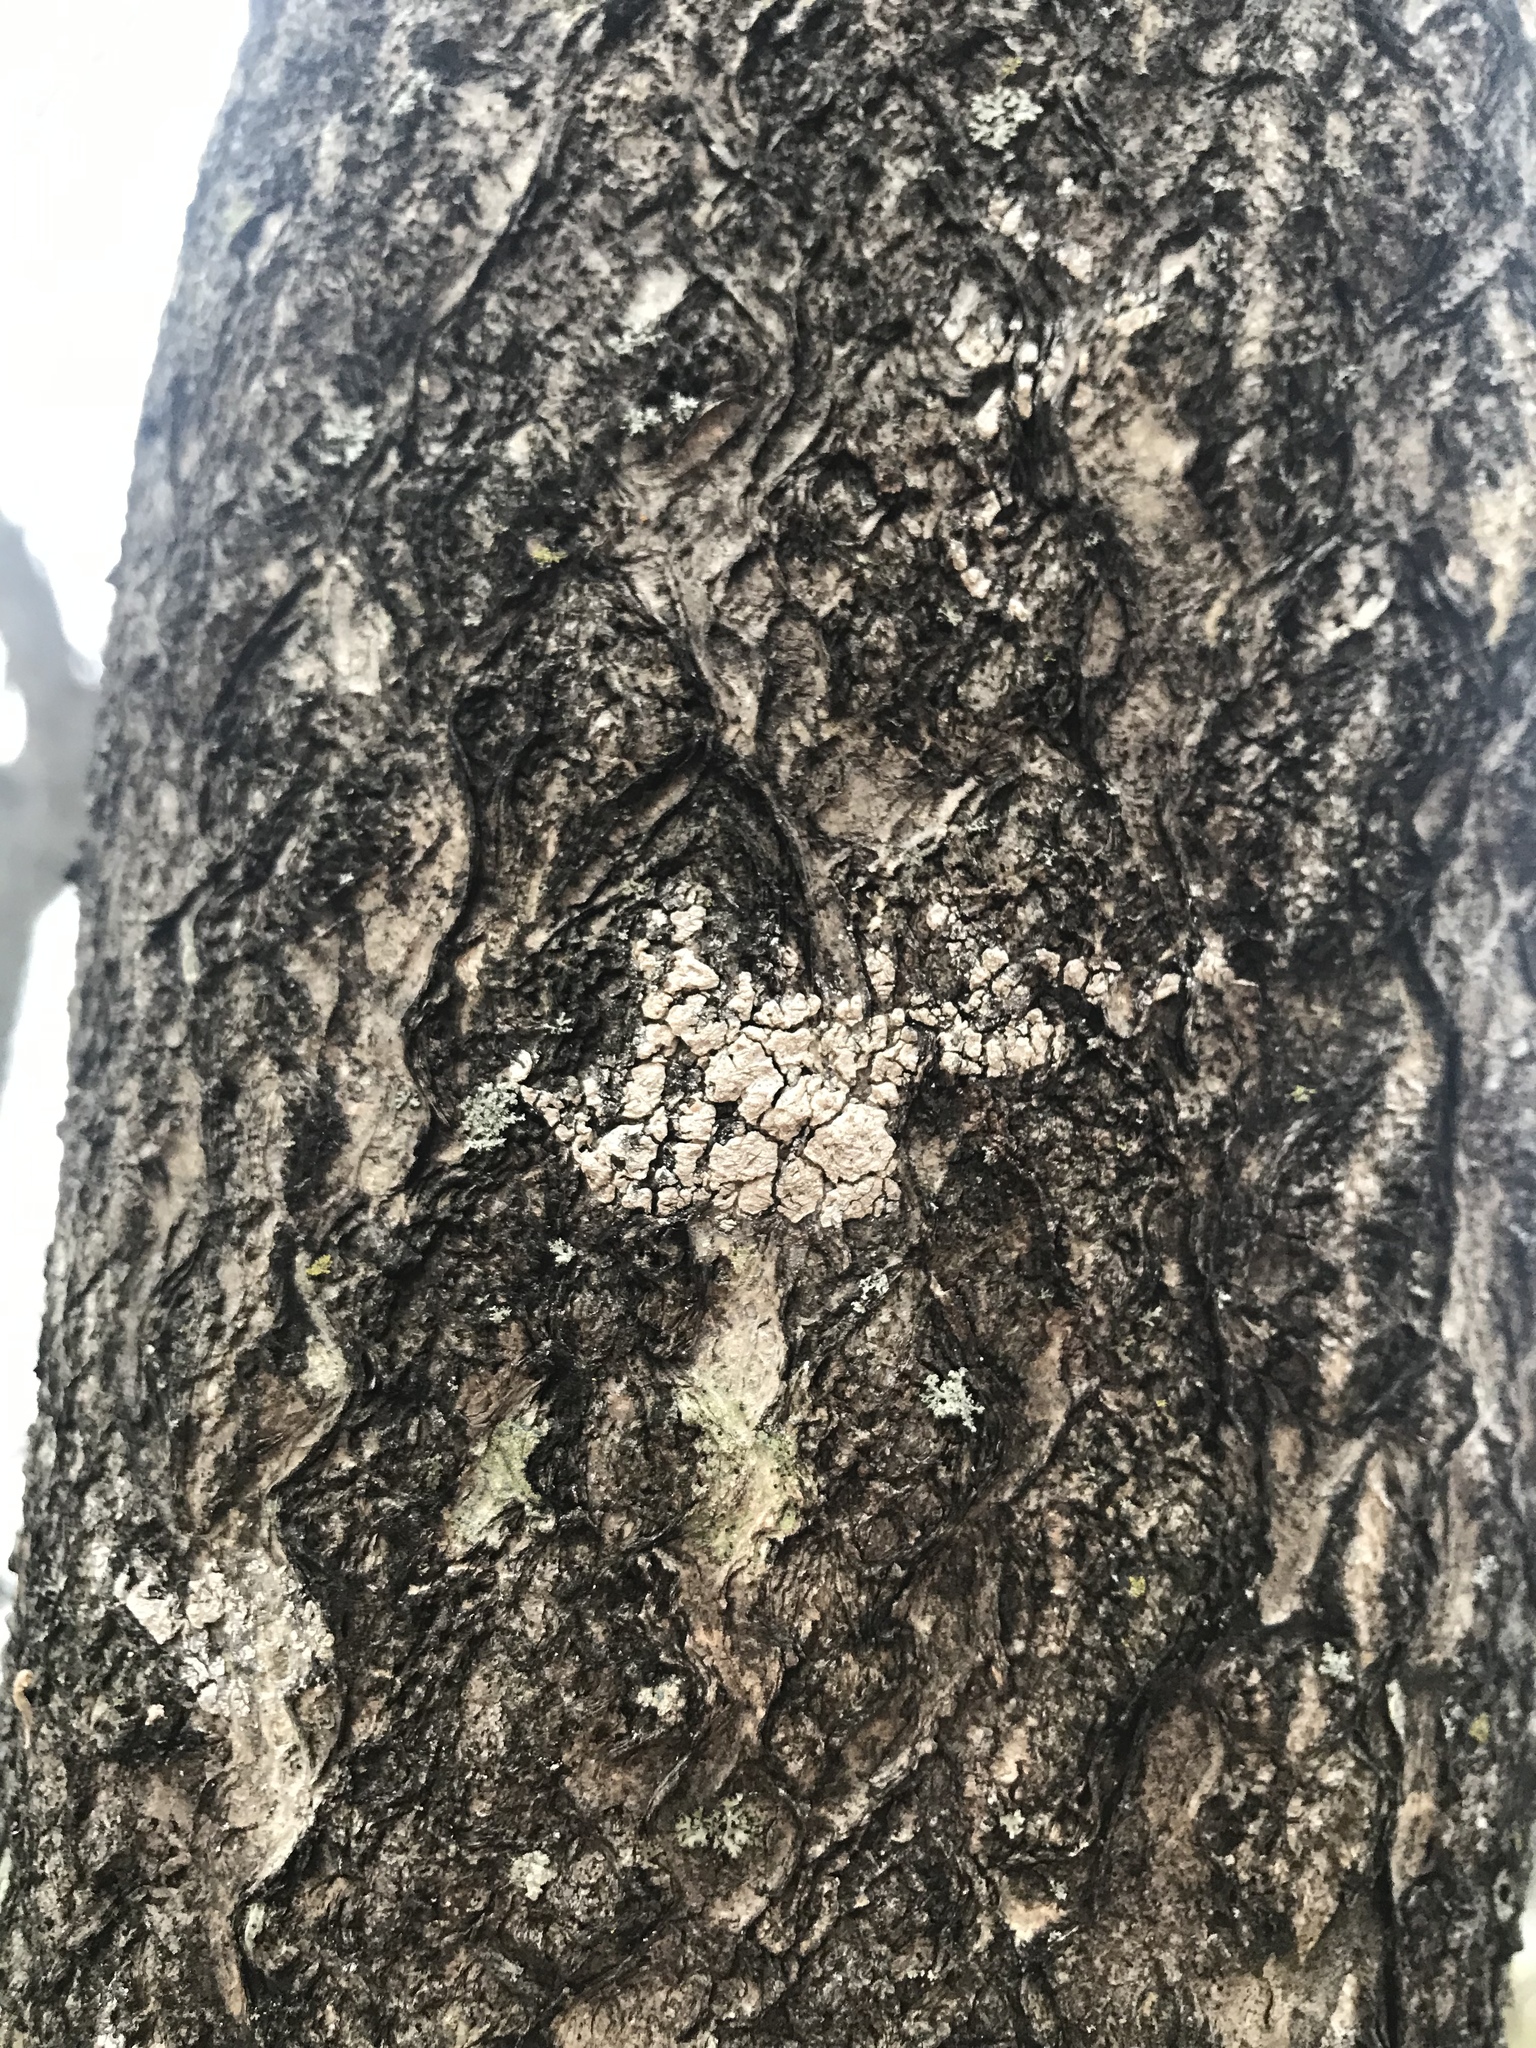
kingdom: Plantae
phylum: Tracheophyta
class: Magnoliopsida
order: Sapindales
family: Simaroubaceae
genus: Ailanthus
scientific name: Ailanthus altissima
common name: Tree-of-heaven
